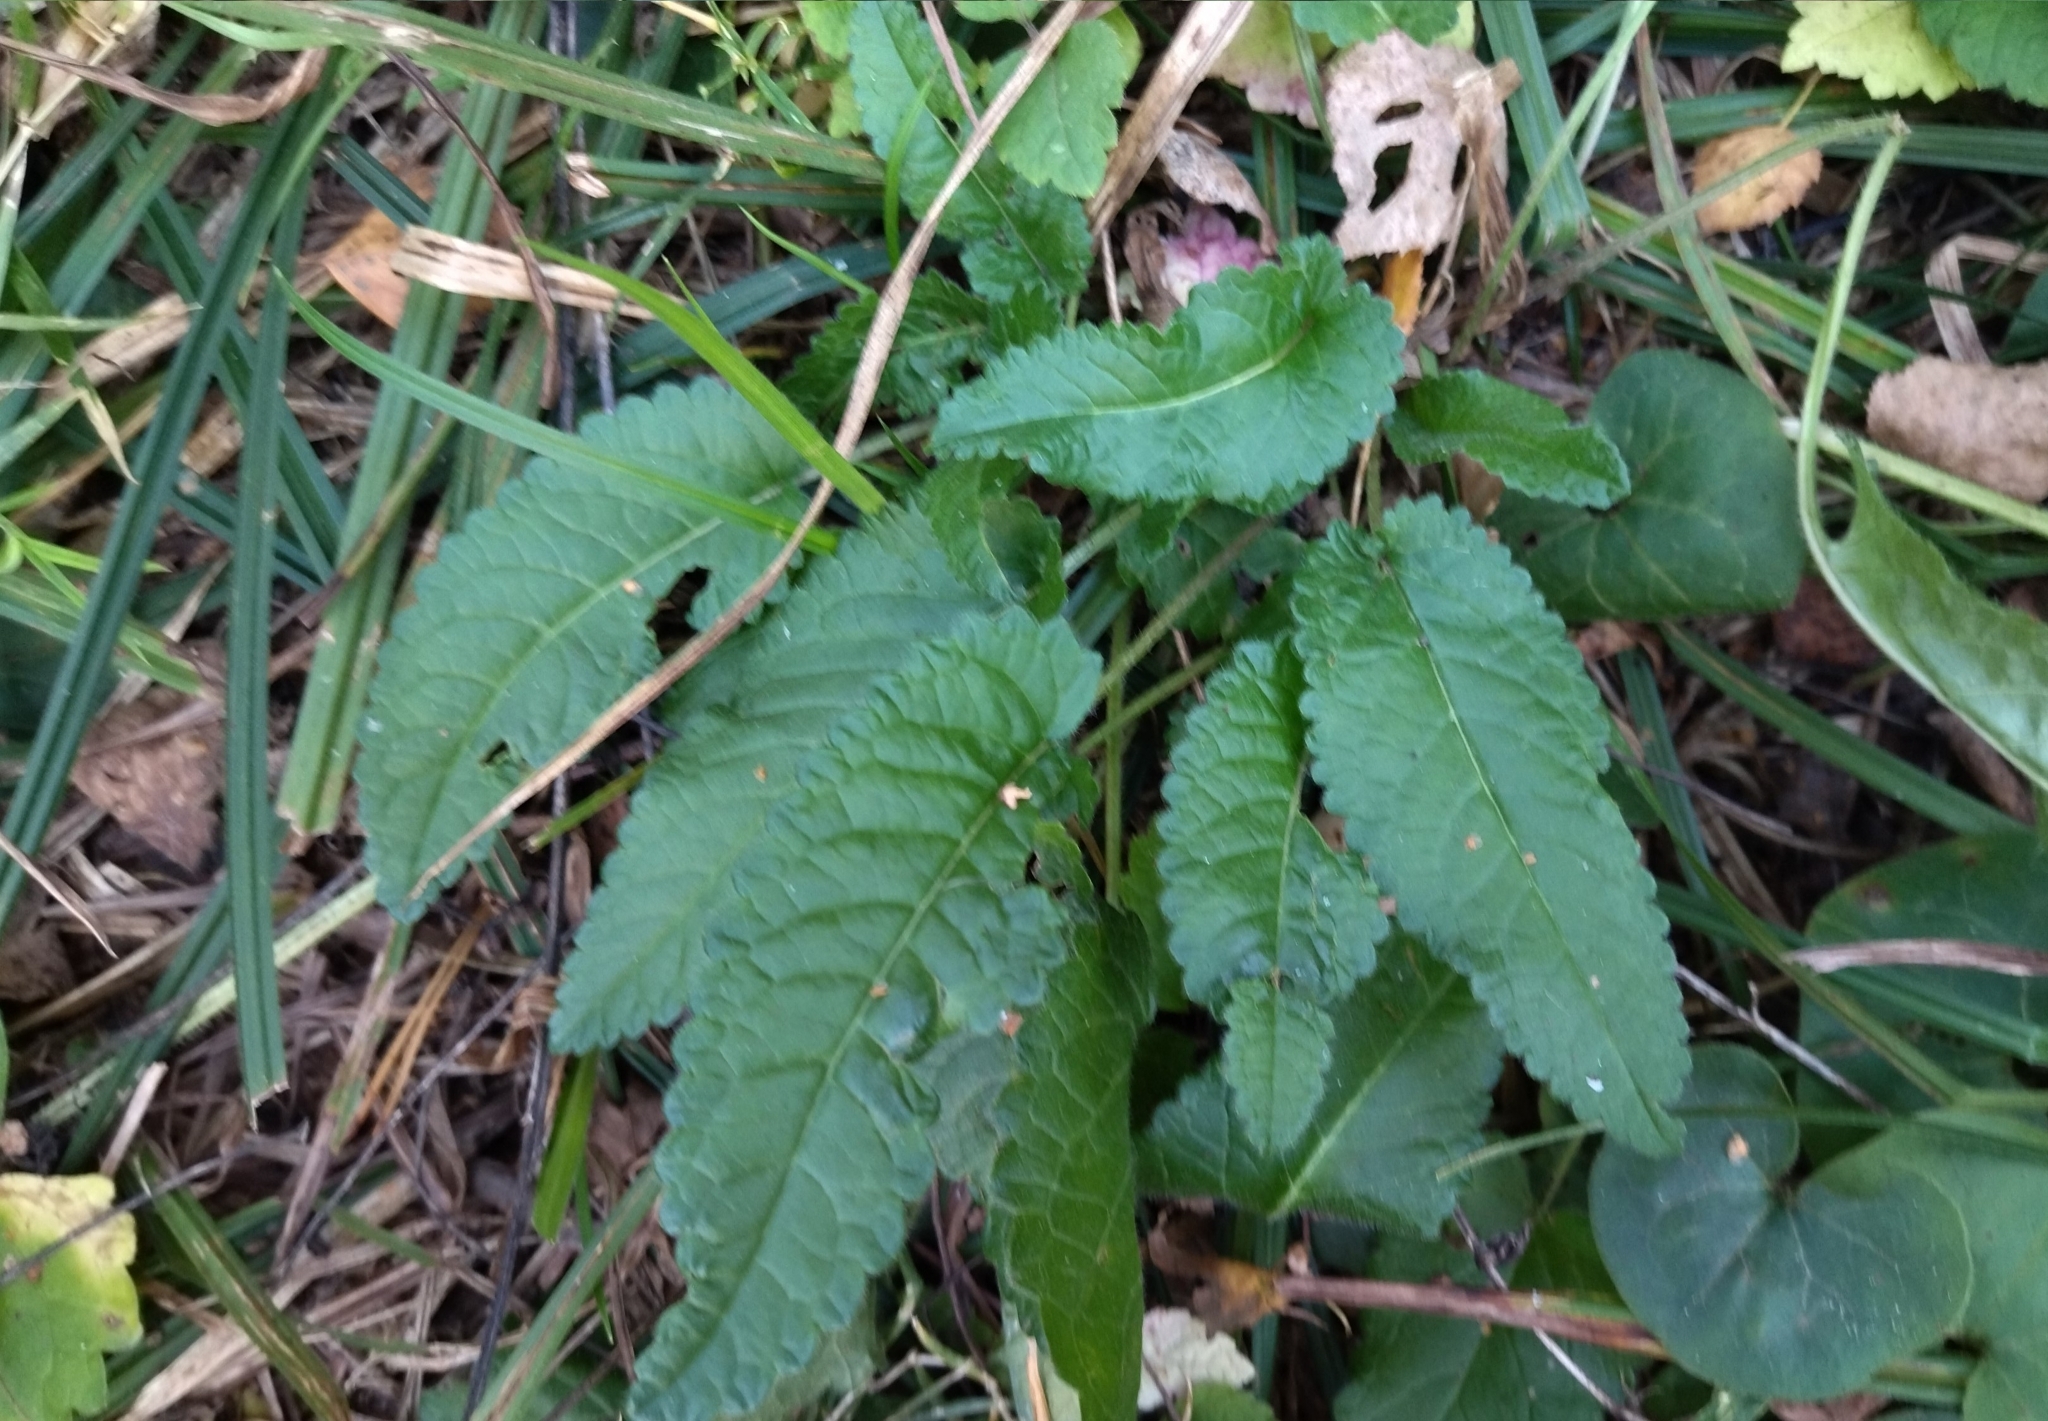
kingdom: Plantae
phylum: Tracheophyta
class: Magnoliopsida
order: Lamiales
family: Lamiaceae
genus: Betonica
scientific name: Betonica officinalis
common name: Bishop's-wort
